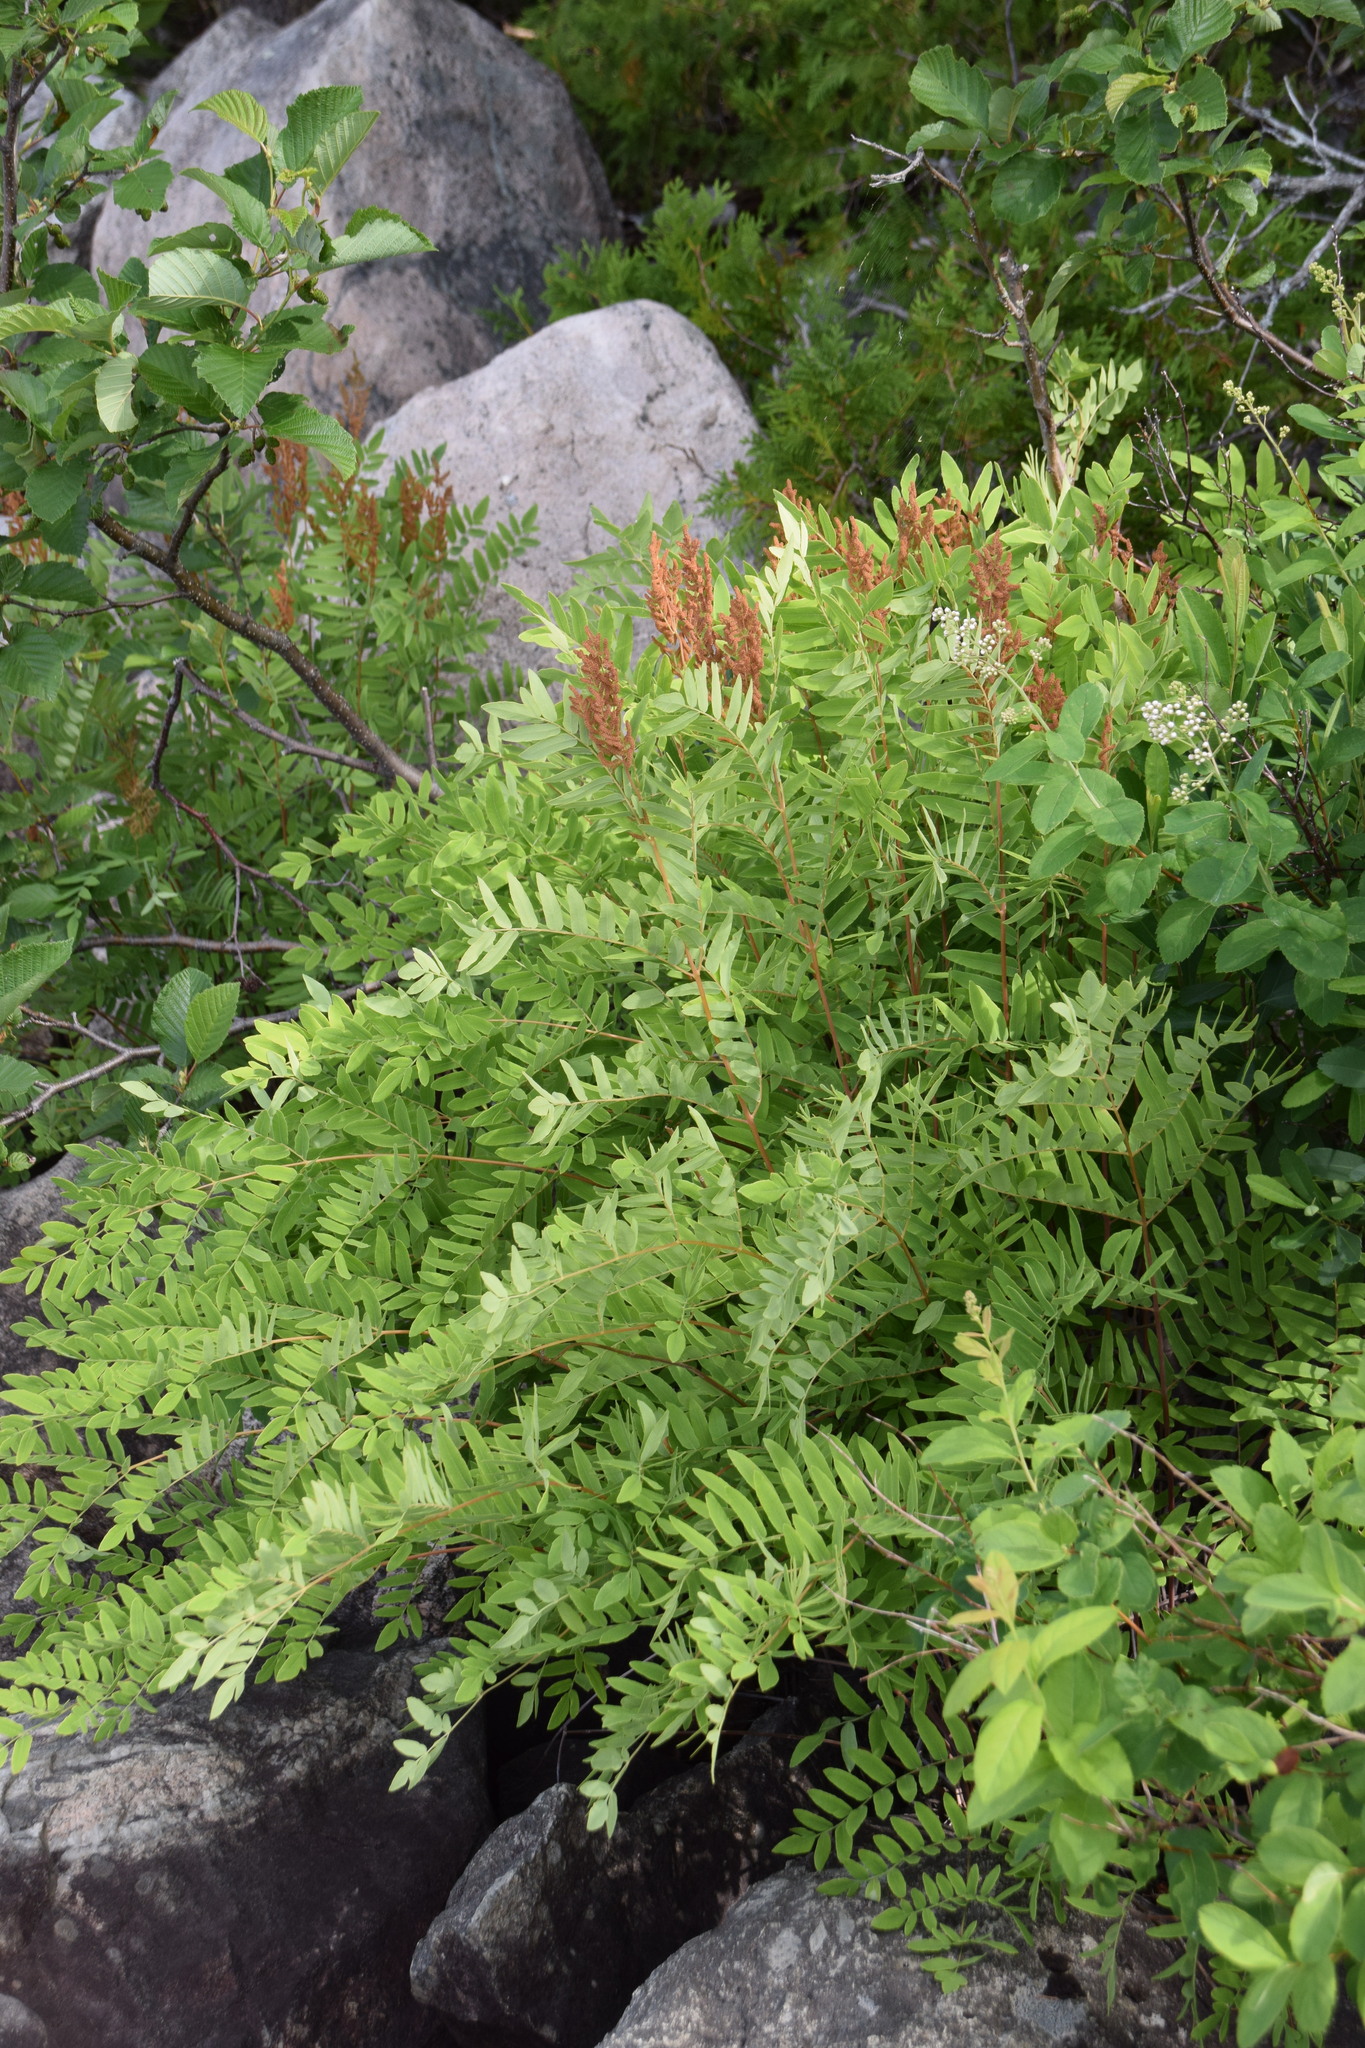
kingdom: Plantae
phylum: Tracheophyta
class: Polypodiopsida
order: Osmundales
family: Osmundaceae
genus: Osmunda
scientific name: Osmunda spectabilis
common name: American royal fern
